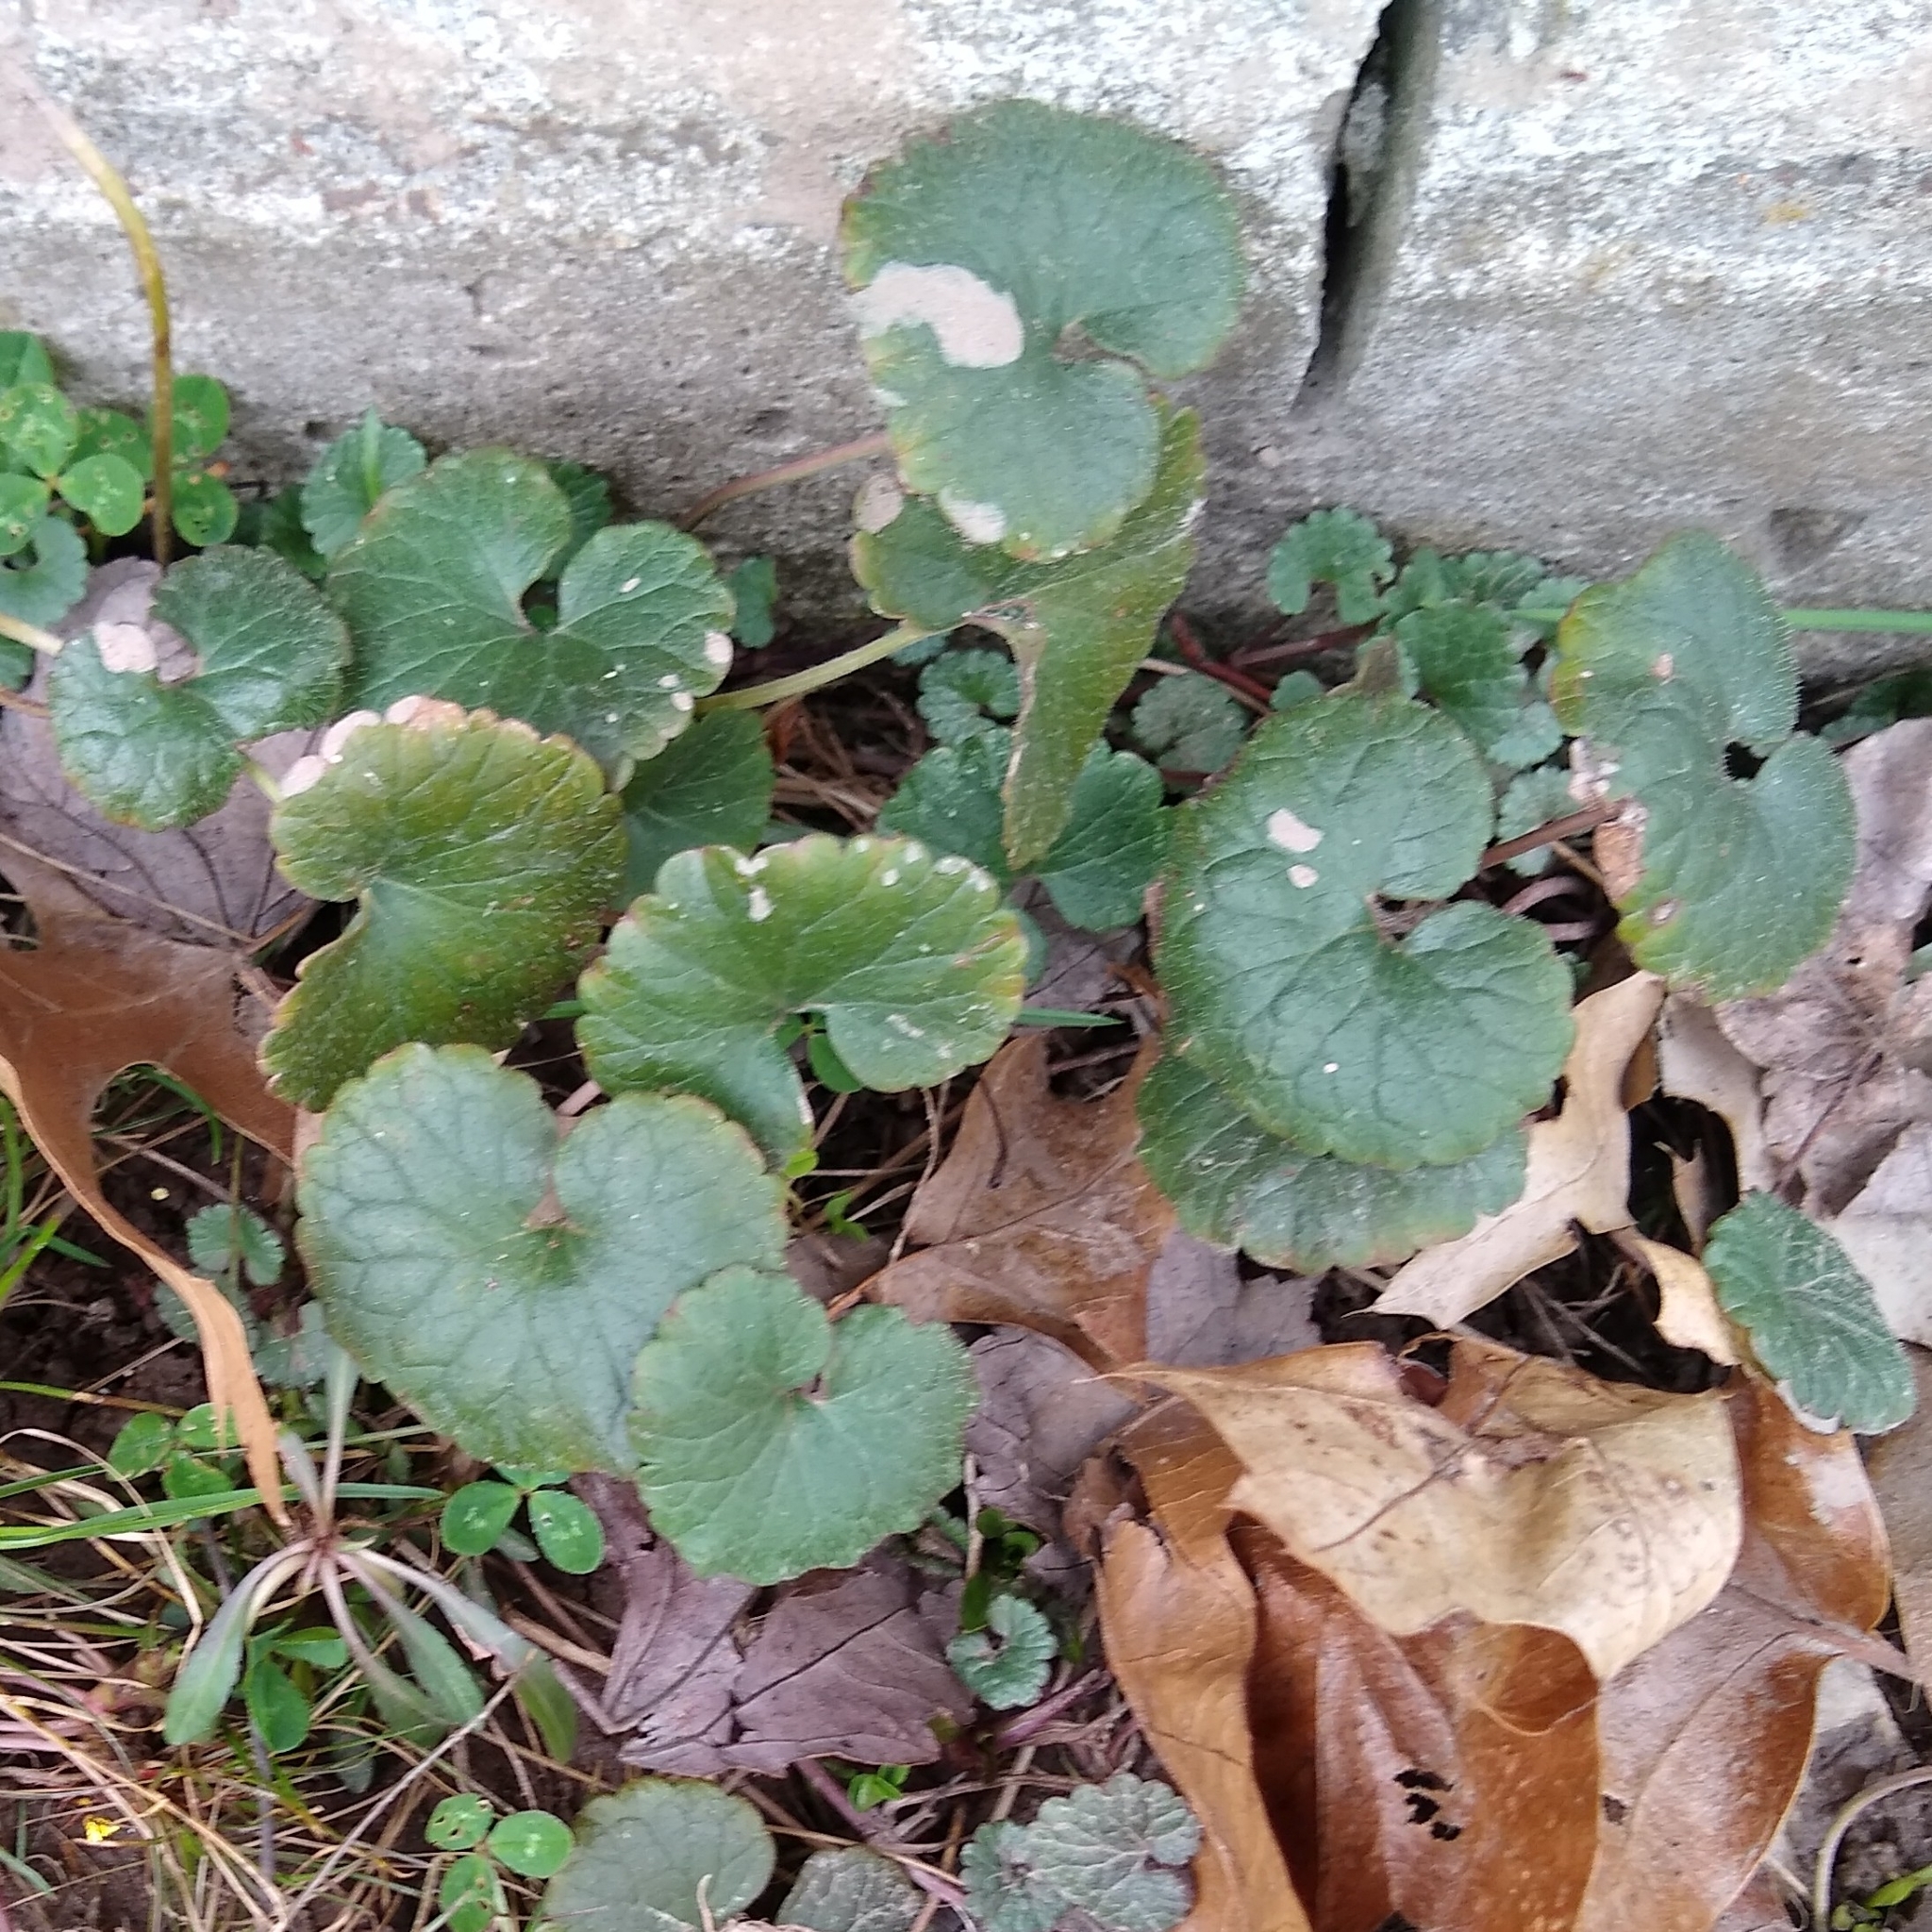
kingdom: Plantae
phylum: Tracheophyta
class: Magnoliopsida
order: Lamiales
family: Lamiaceae
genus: Glechoma
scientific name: Glechoma hederacea
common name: Ground ivy
